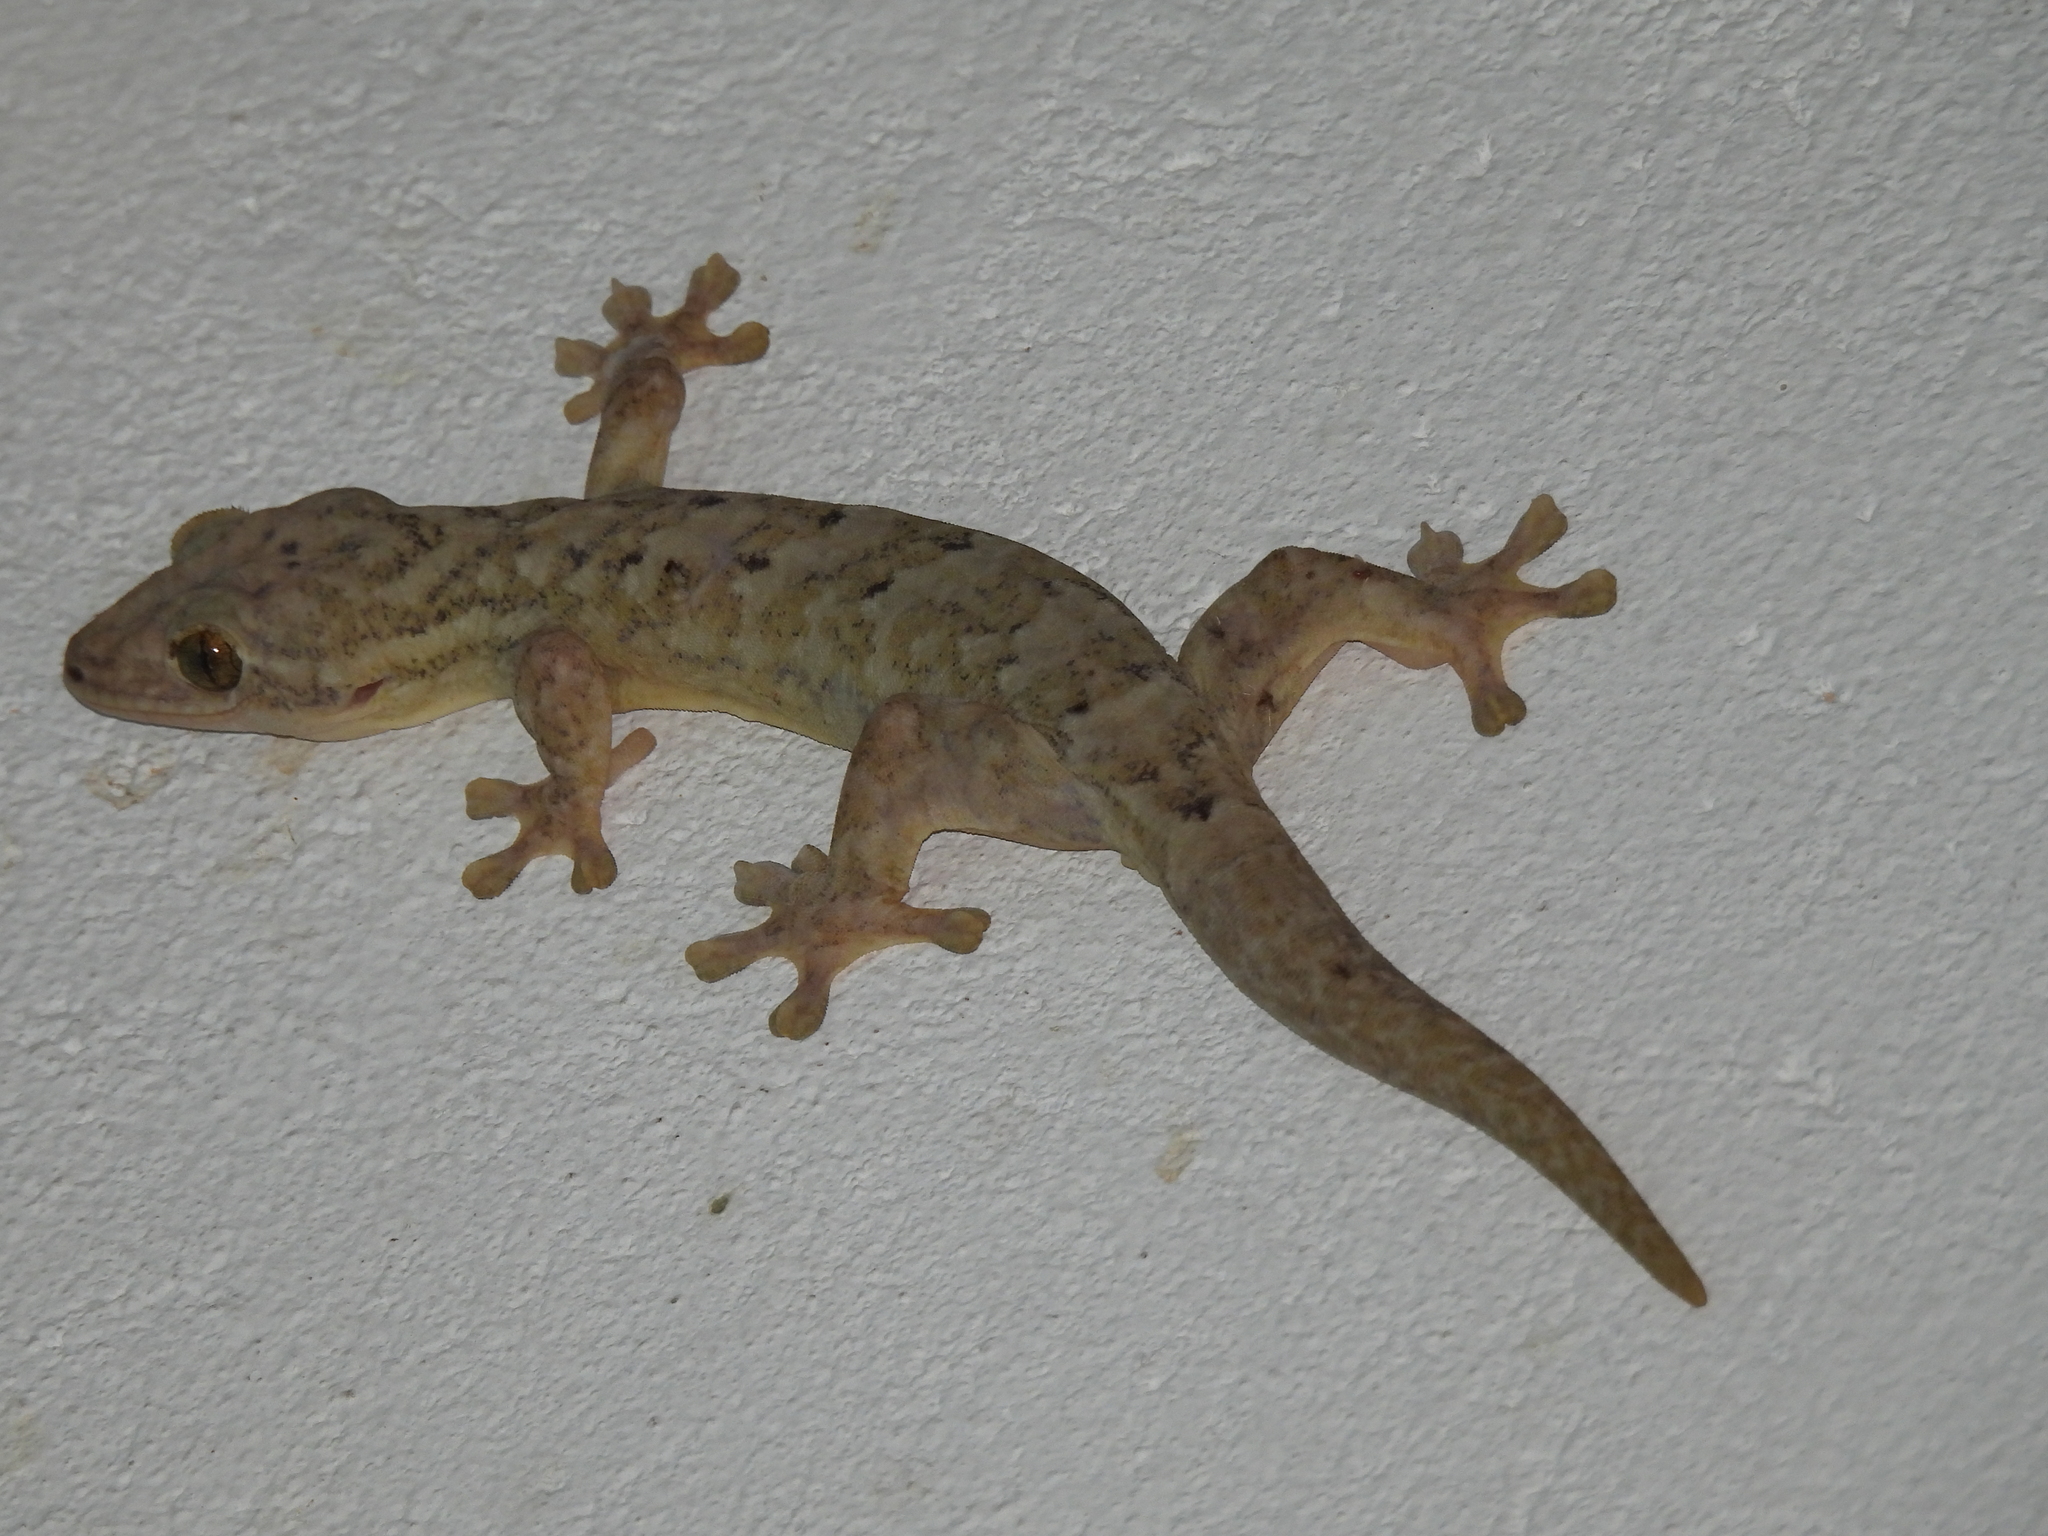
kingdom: Animalia
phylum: Chordata
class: Squamata
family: Phyllodactylidae
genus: Thecadactylus
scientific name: Thecadactylus rapicauda
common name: Turnip-tailed gecko
